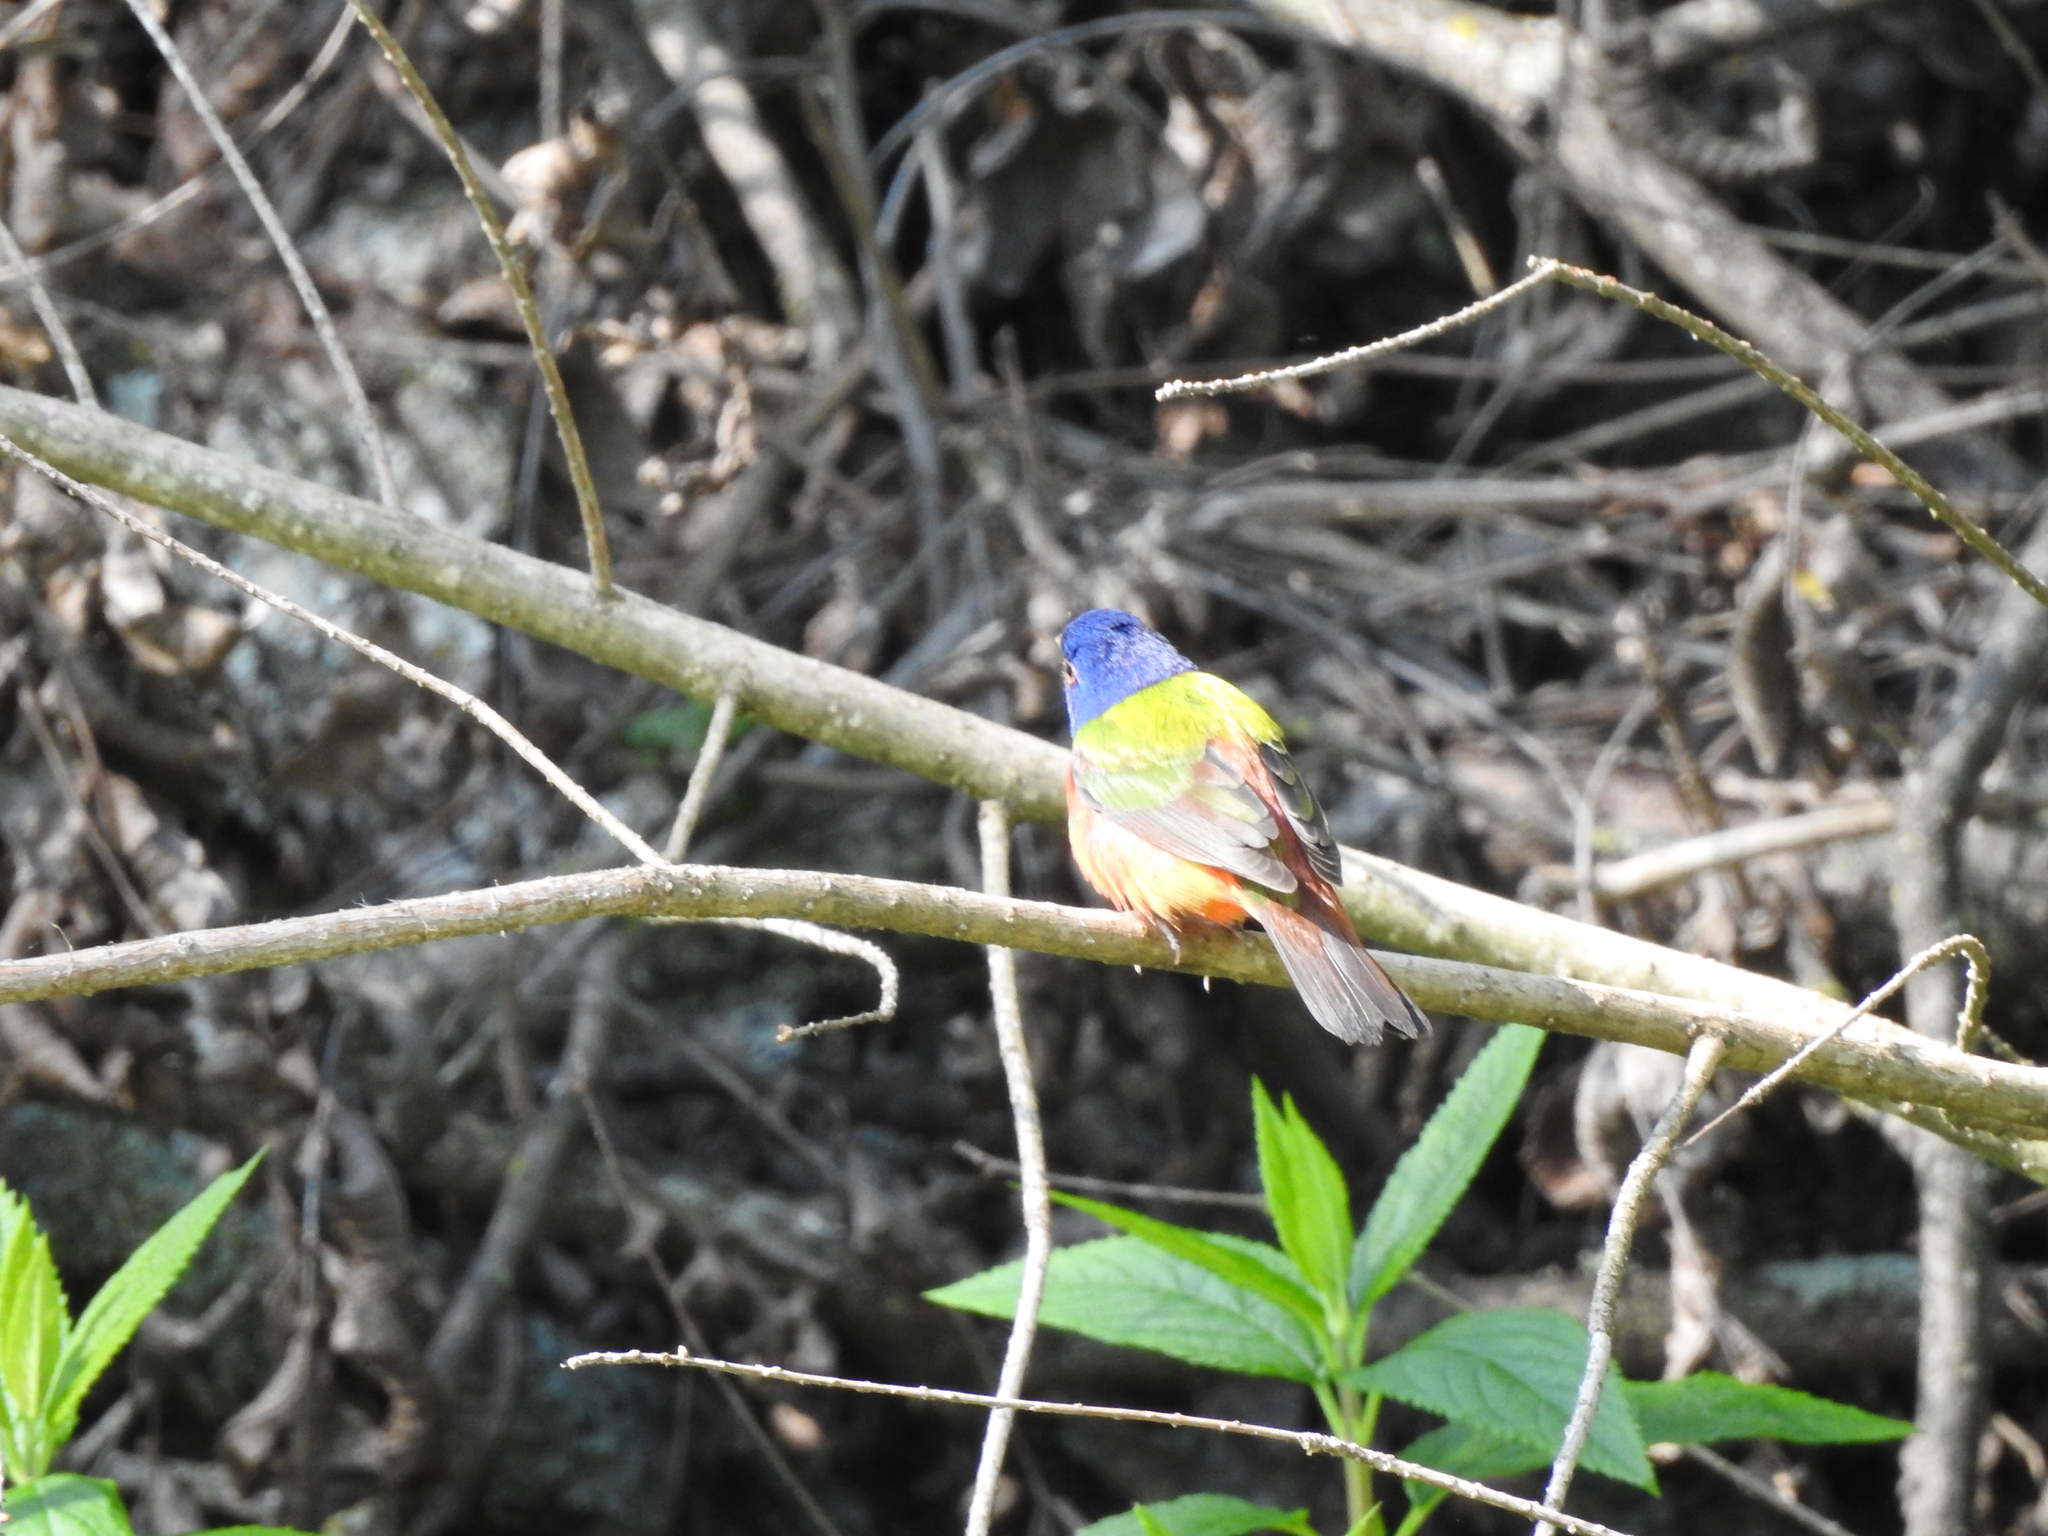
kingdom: Animalia
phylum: Chordata
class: Aves
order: Passeriformes
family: Cardinalidae
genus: Passerina
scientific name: Passerina ciris
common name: Painted bunting
